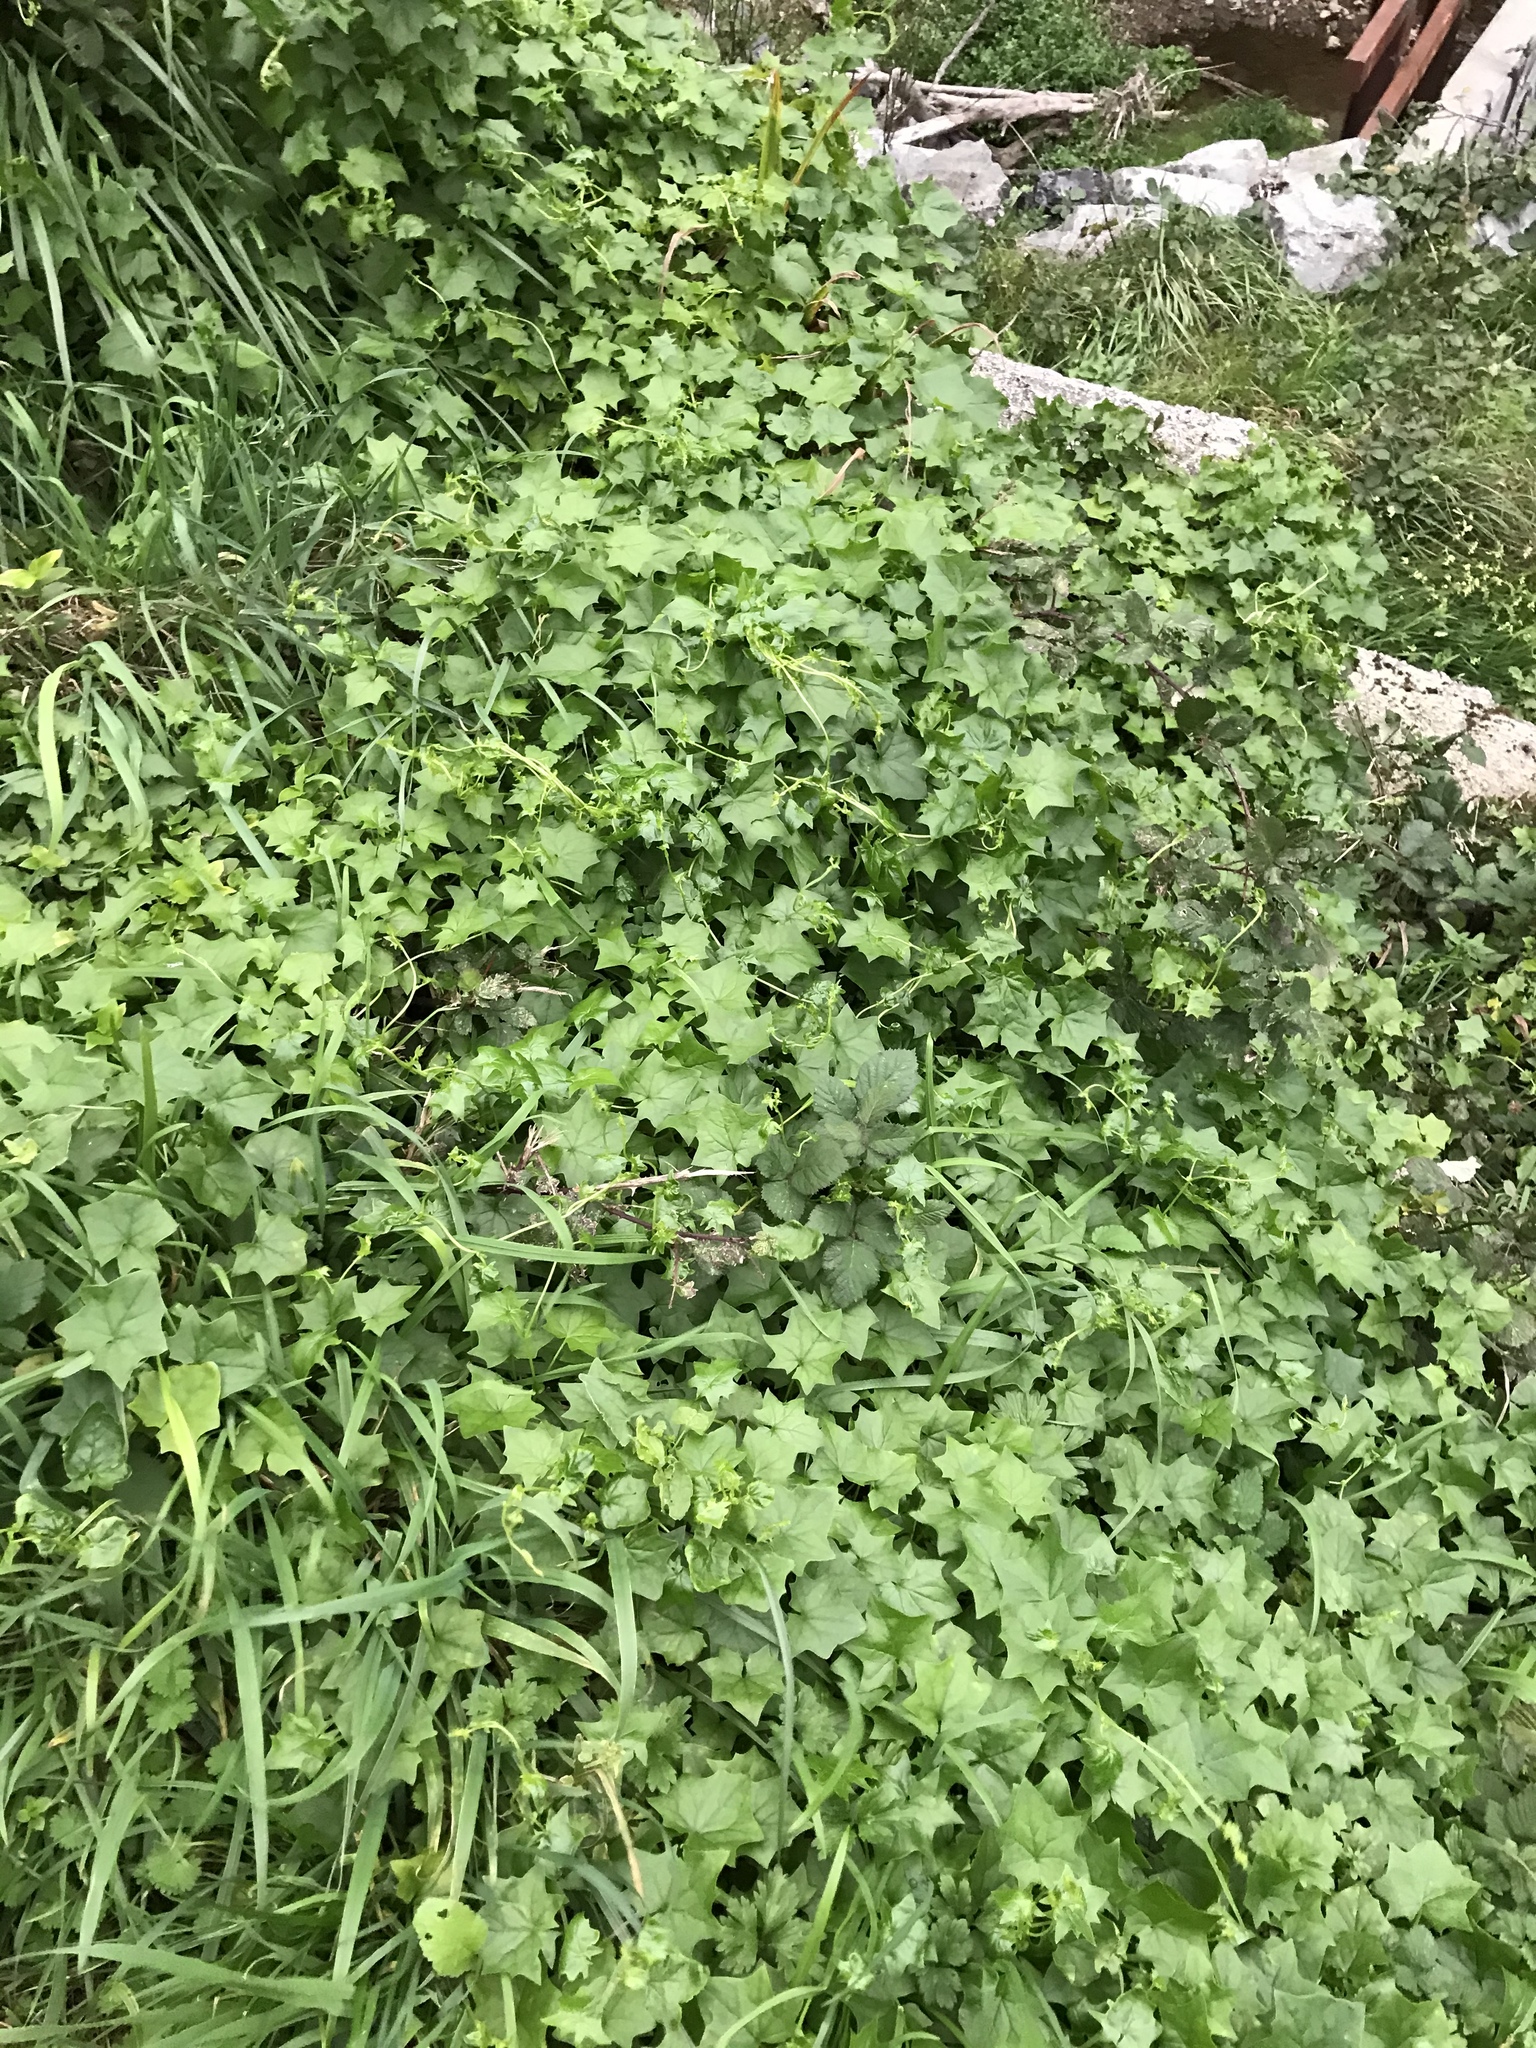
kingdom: Plantae
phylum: Tracheophyta
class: Magnoliopsida
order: Asterales
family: Asteraceae
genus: Delairea
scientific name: Delairea odorata
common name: Cape-ivy
